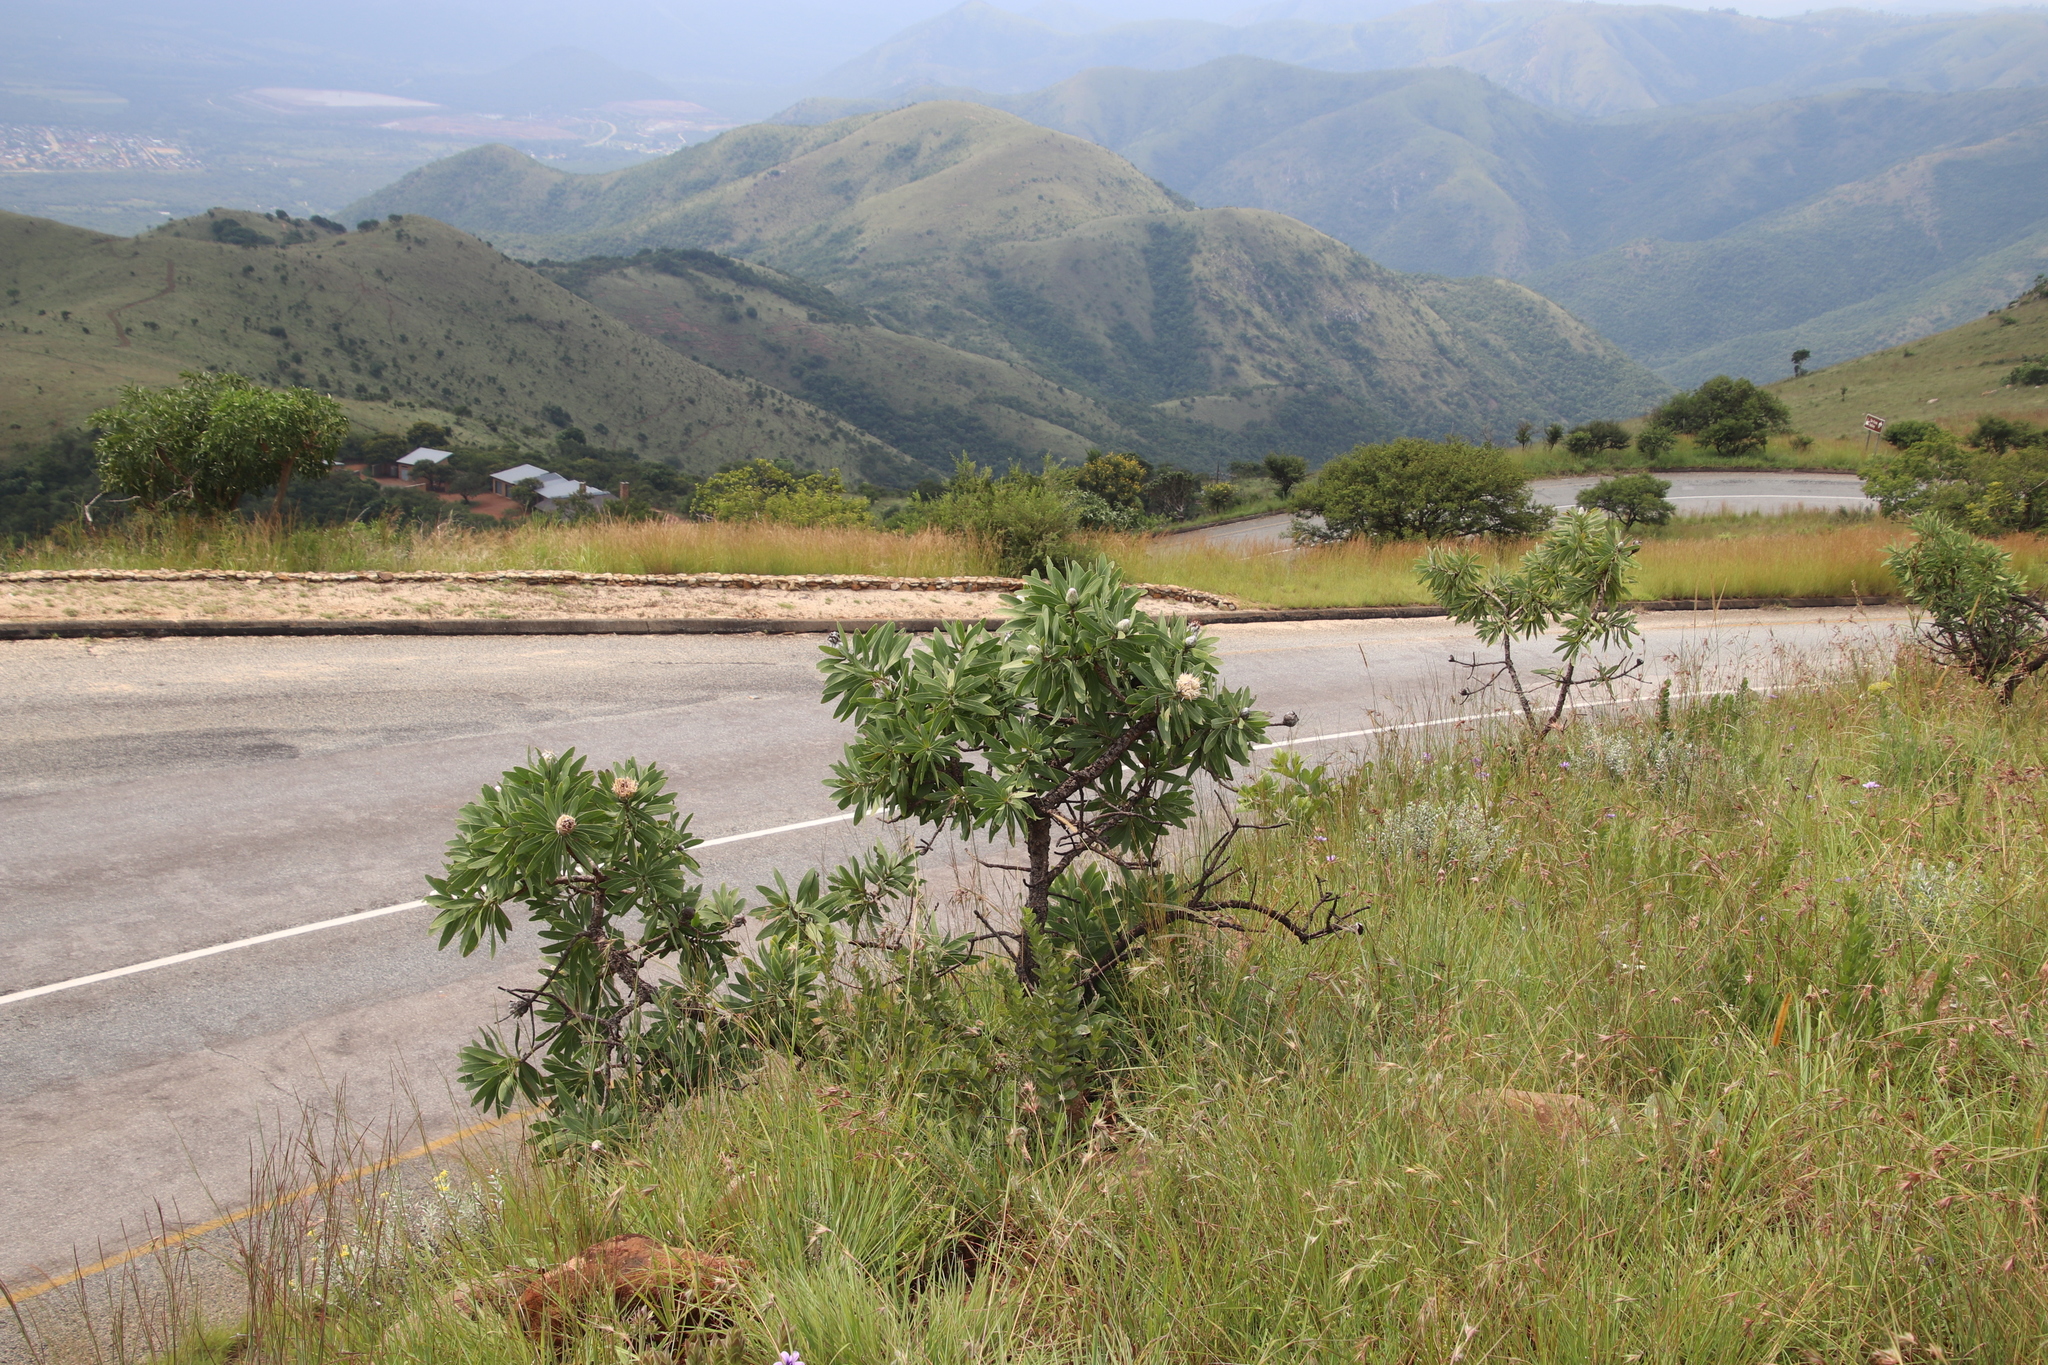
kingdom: Plantae
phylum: Tracheophyta
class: Magnoliopsida
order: Proteales
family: Proteaceae
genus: Protea
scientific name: Protea gaguedi
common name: African protea
